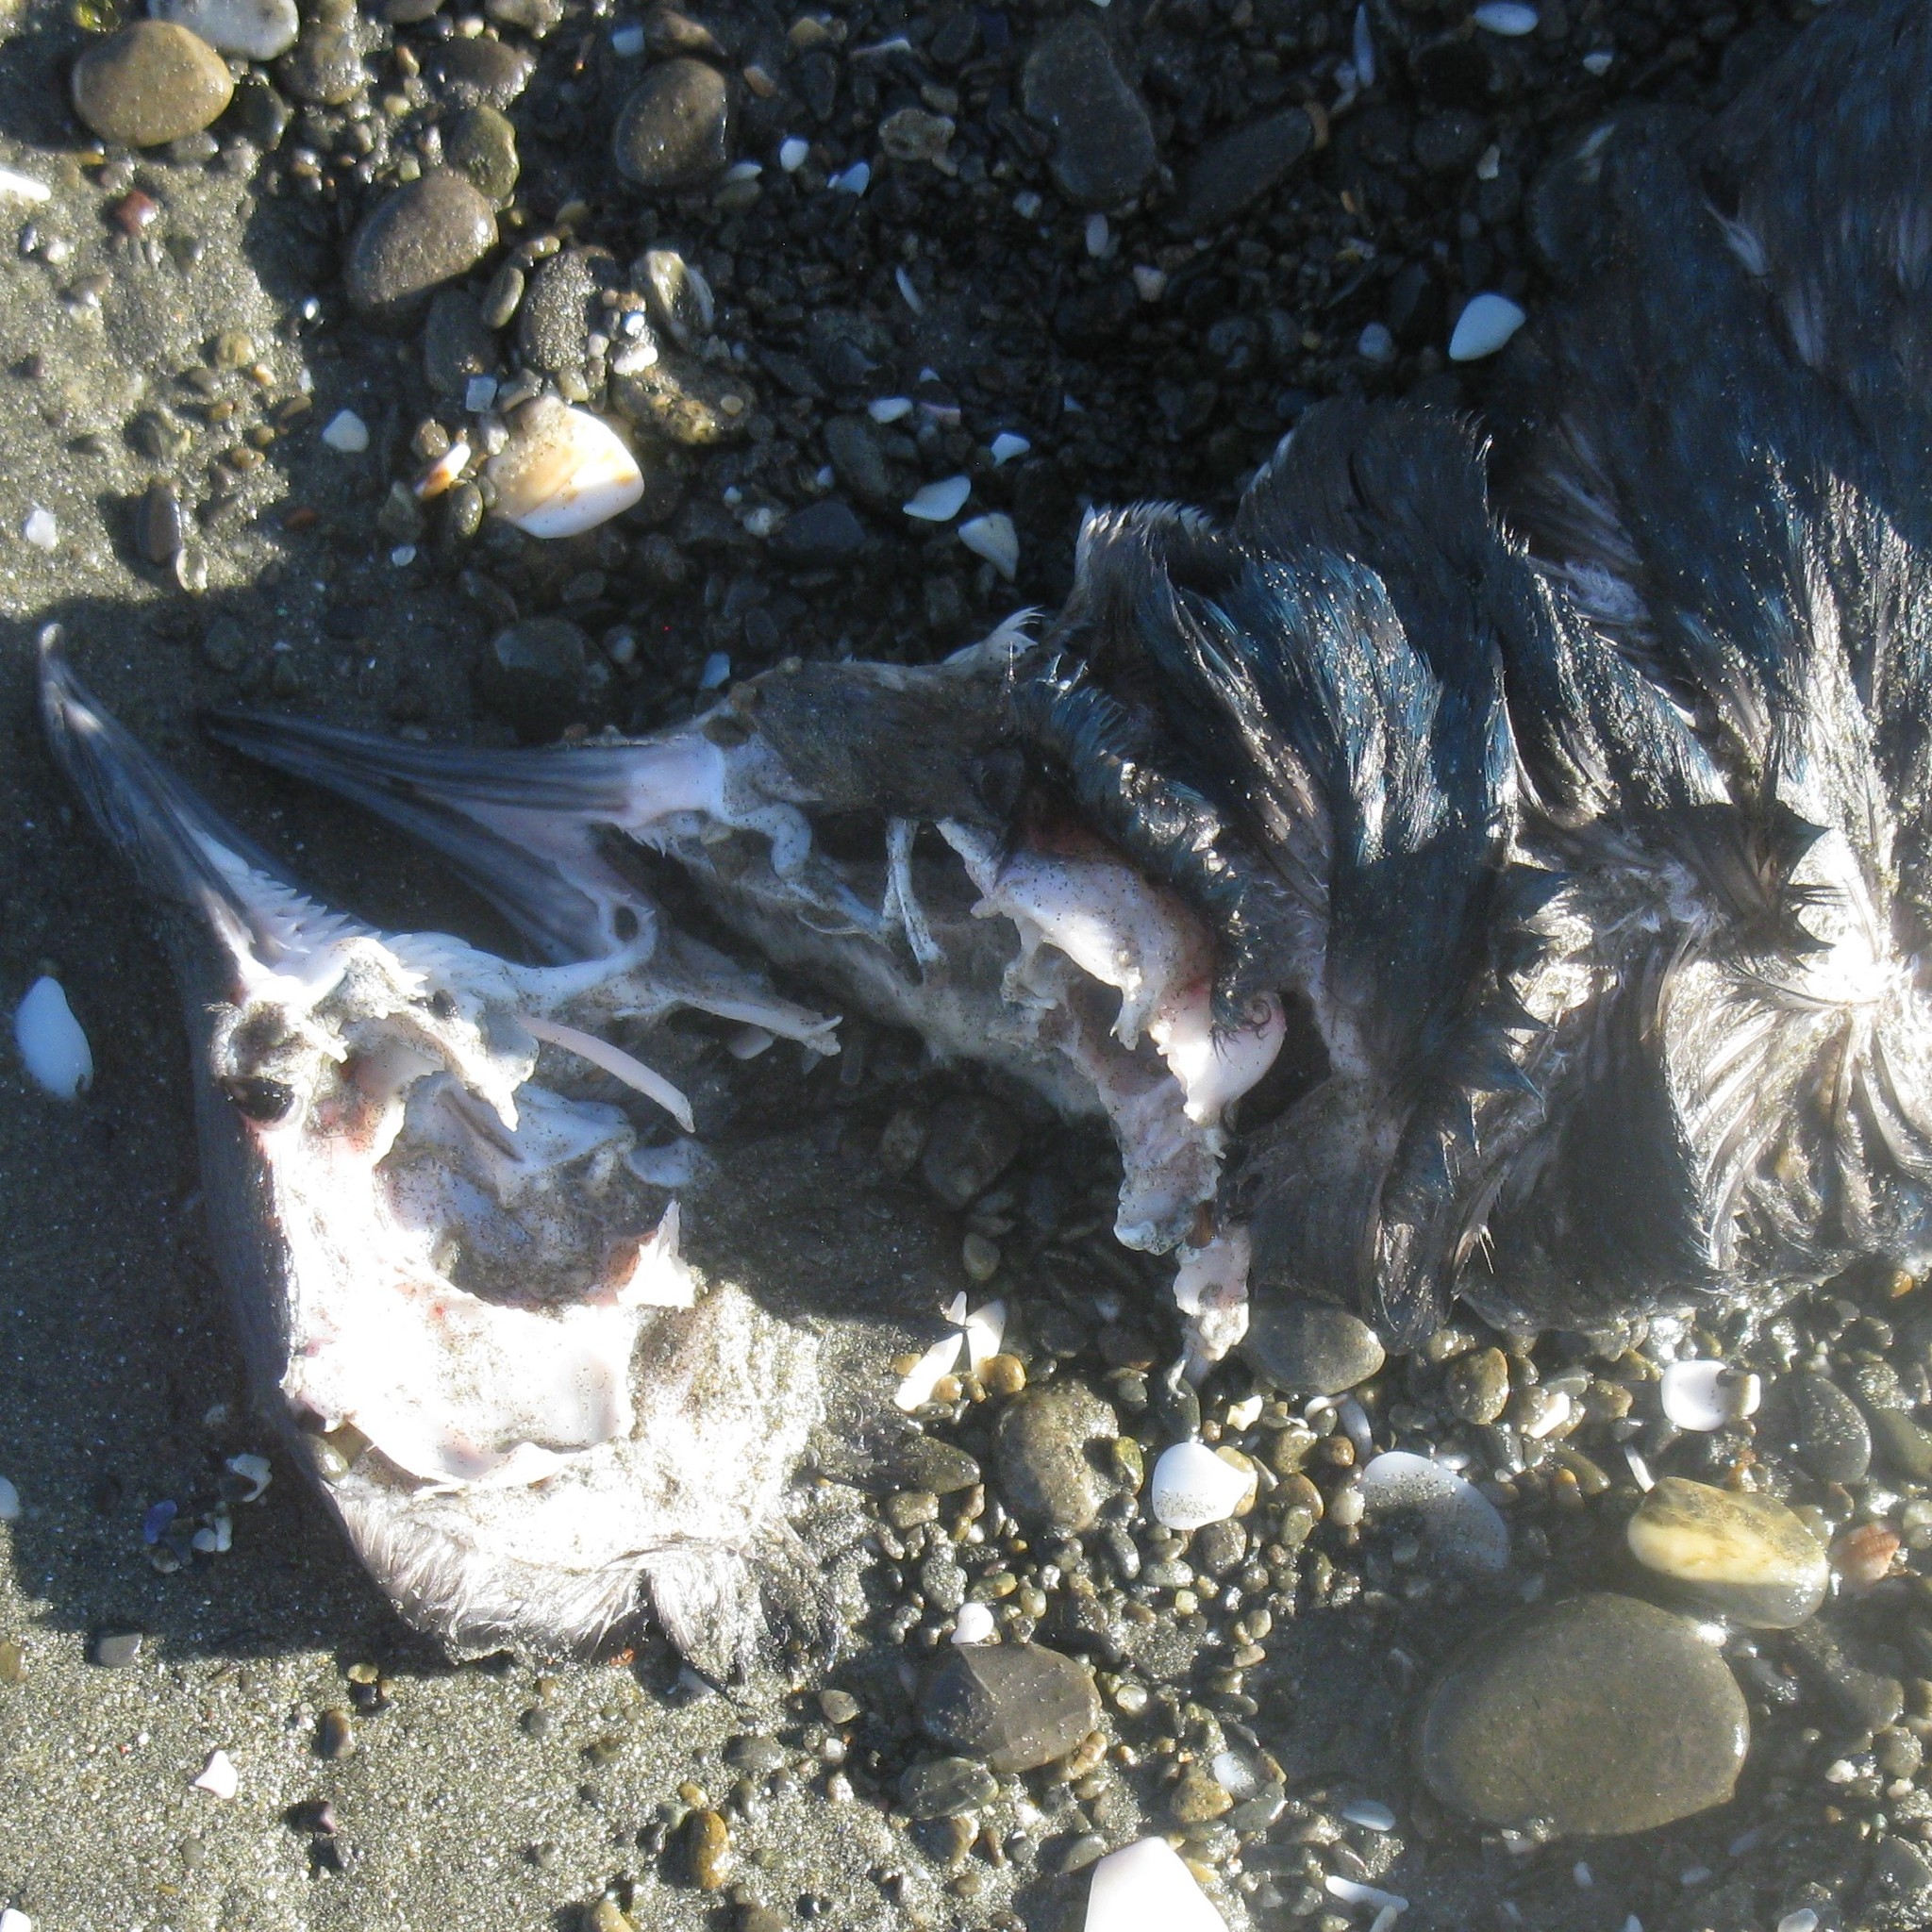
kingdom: Animalia
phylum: Chordata
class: Aves
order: Sphenisciformes
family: Spheniscidae
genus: Eudyptula
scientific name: Eudyptula minor
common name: Little penguin
